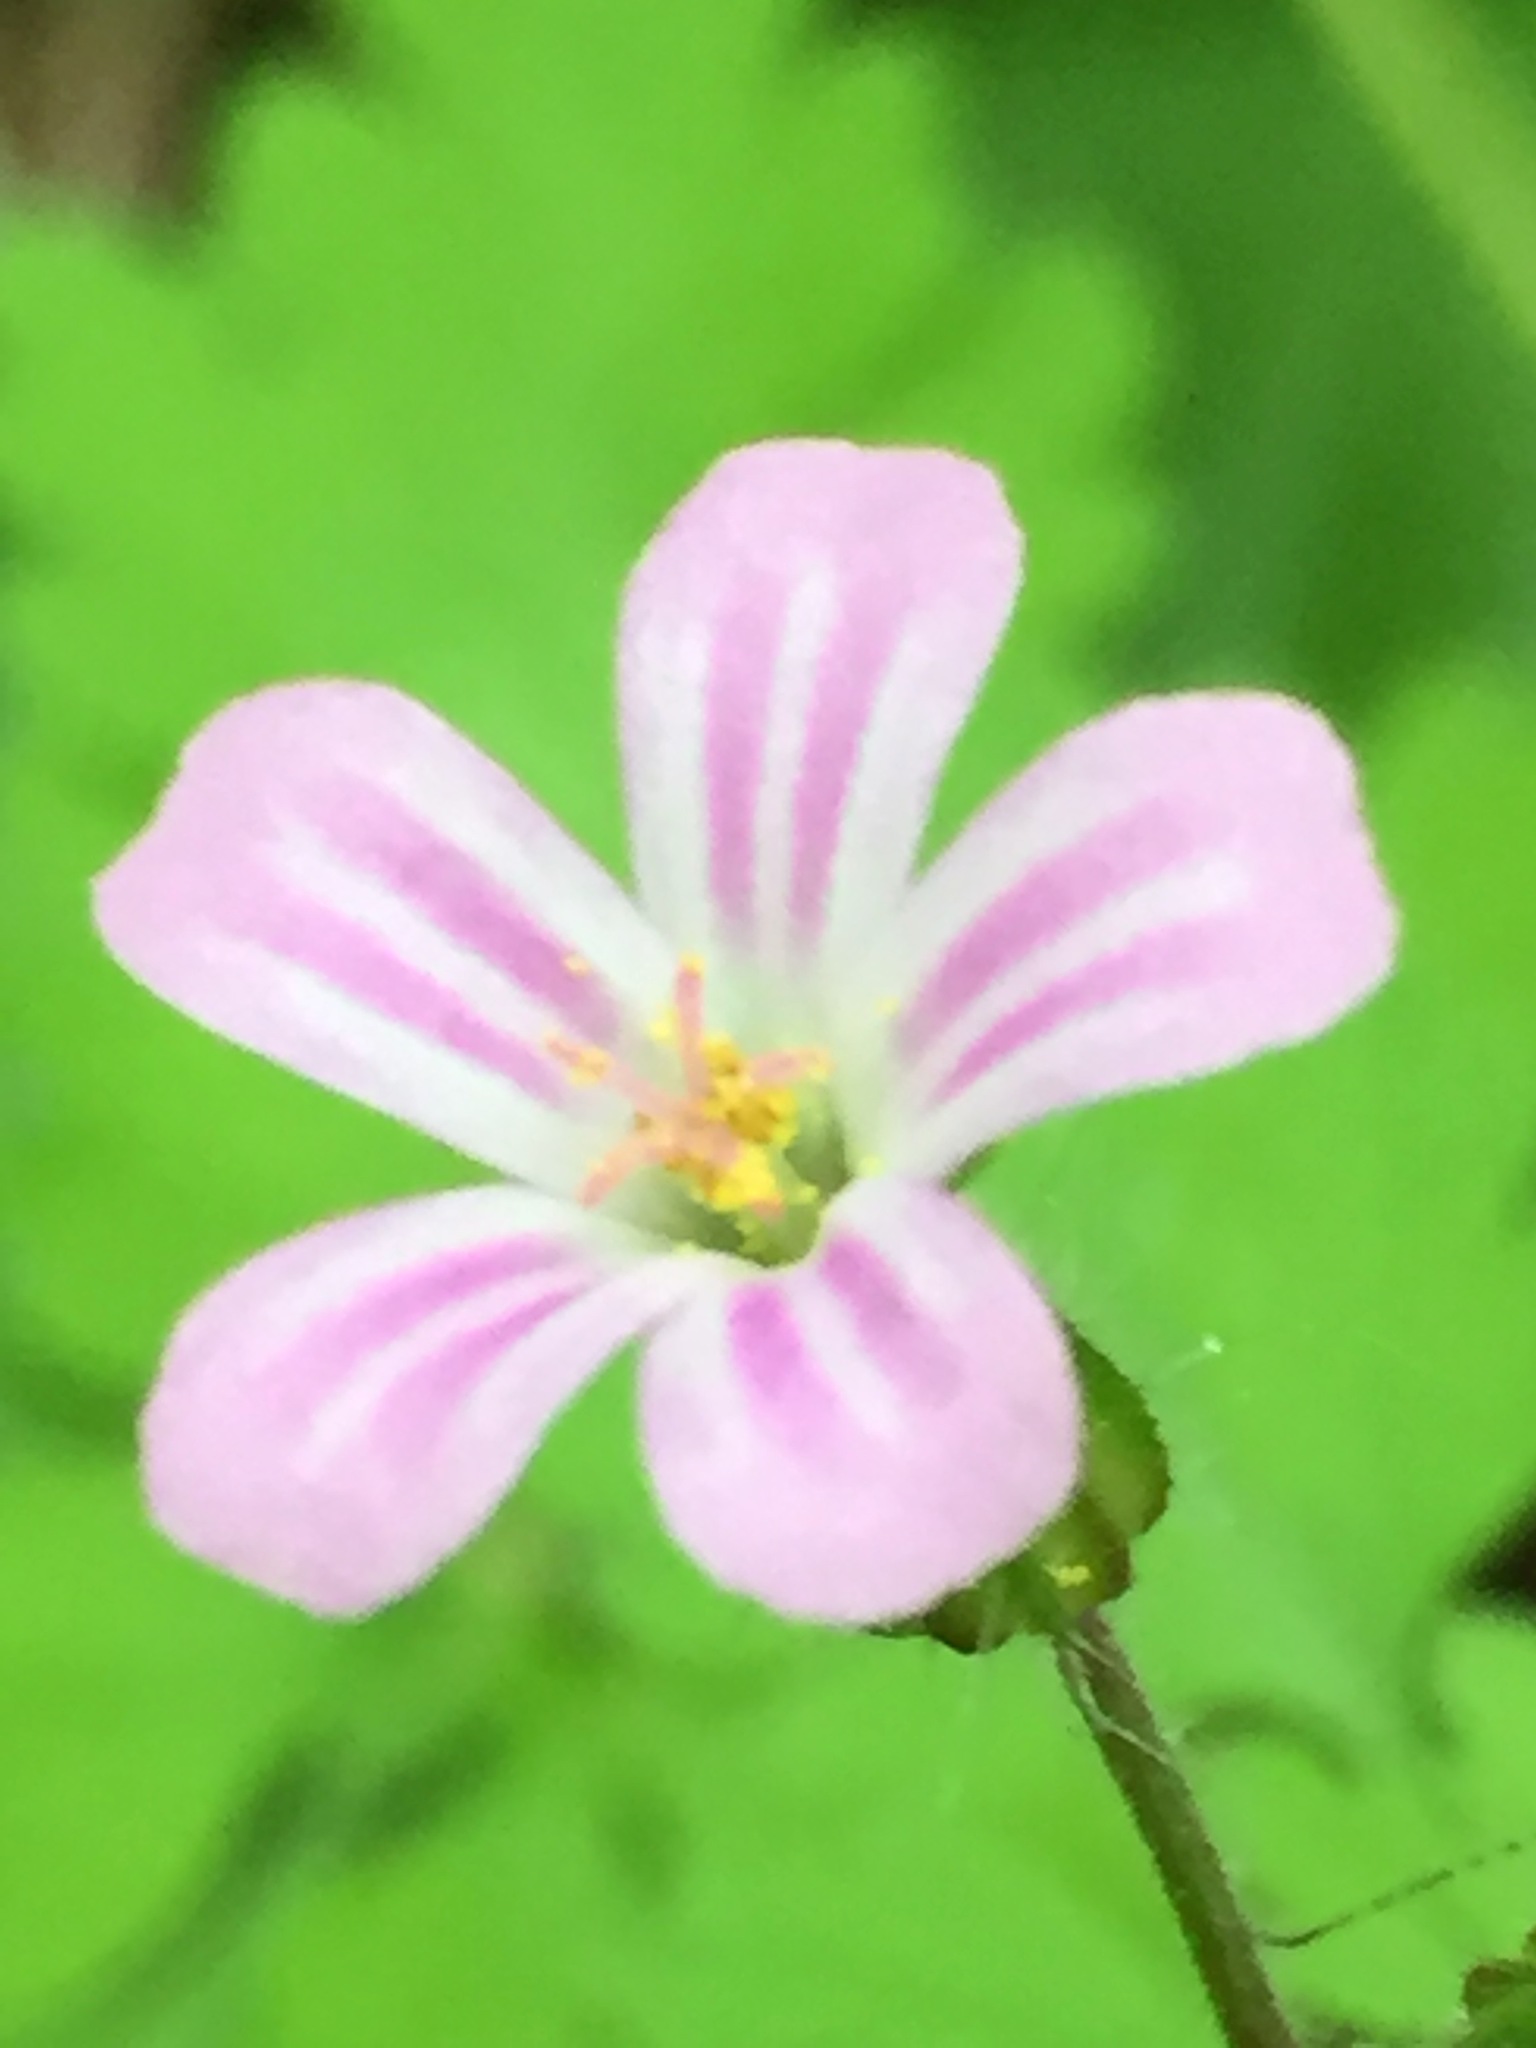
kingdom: Plantae
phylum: Tracheophyta
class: Magnoliopsida
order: Geraniales
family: Geraniaceae
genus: Geranium
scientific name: Geranium robertianum
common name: Herb-robert
